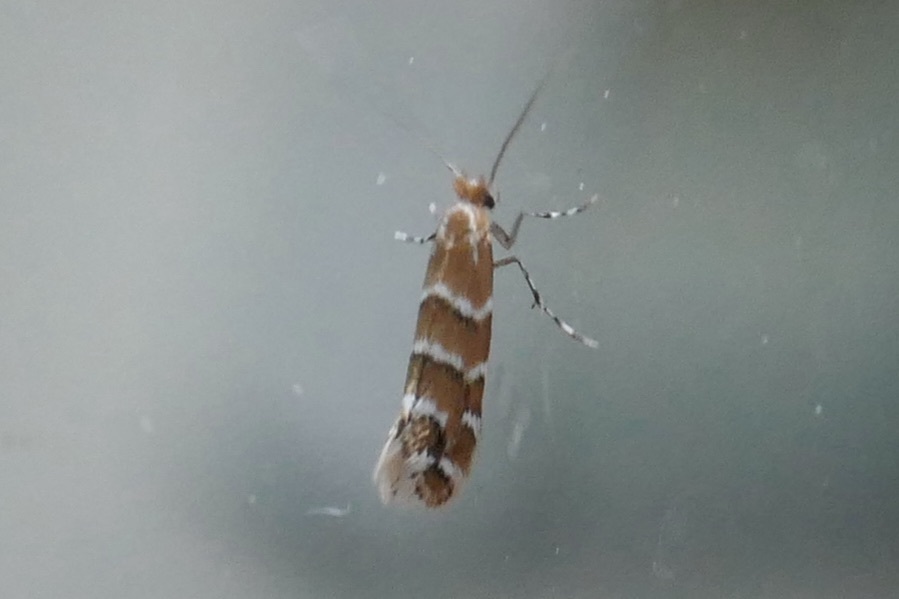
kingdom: Animalia
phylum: Arthropoda
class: Insecta
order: Lepidoptera
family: Gracillariidae
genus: Cameraria
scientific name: Cameraria ohridella
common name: Horse-chestnut leaf-miner
